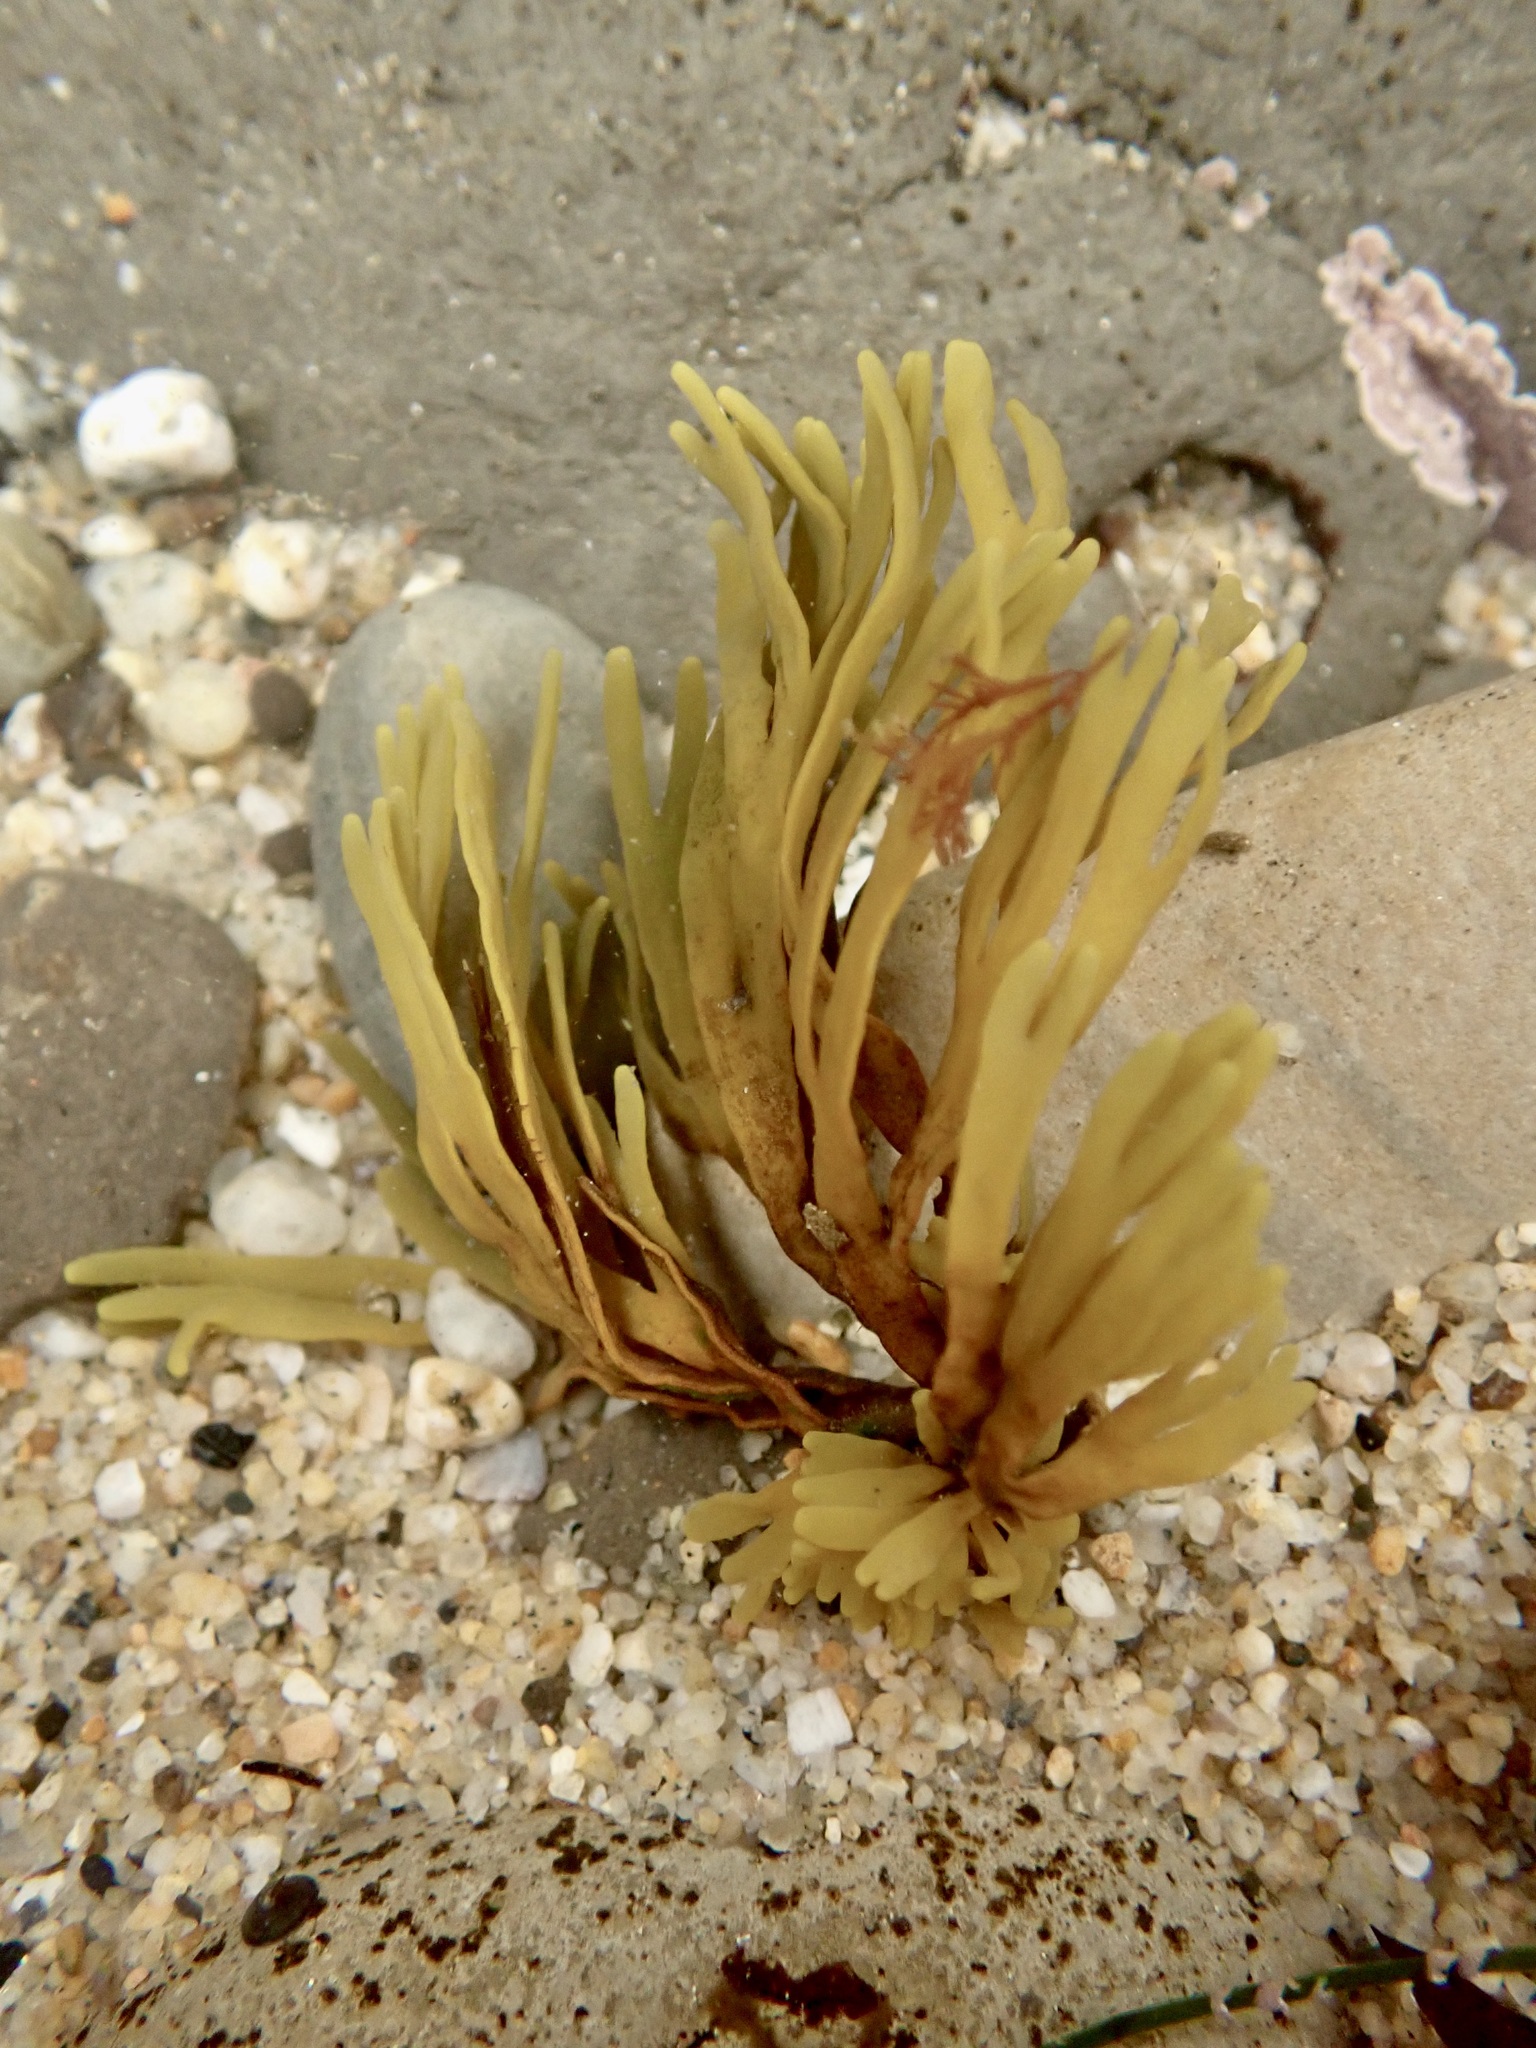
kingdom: Chromista
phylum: Ochrophyta
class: Phaeophyceae
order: Fucales
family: Fucaceae
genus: Pelvetiopsis
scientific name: Pelvetiopsis limitata
